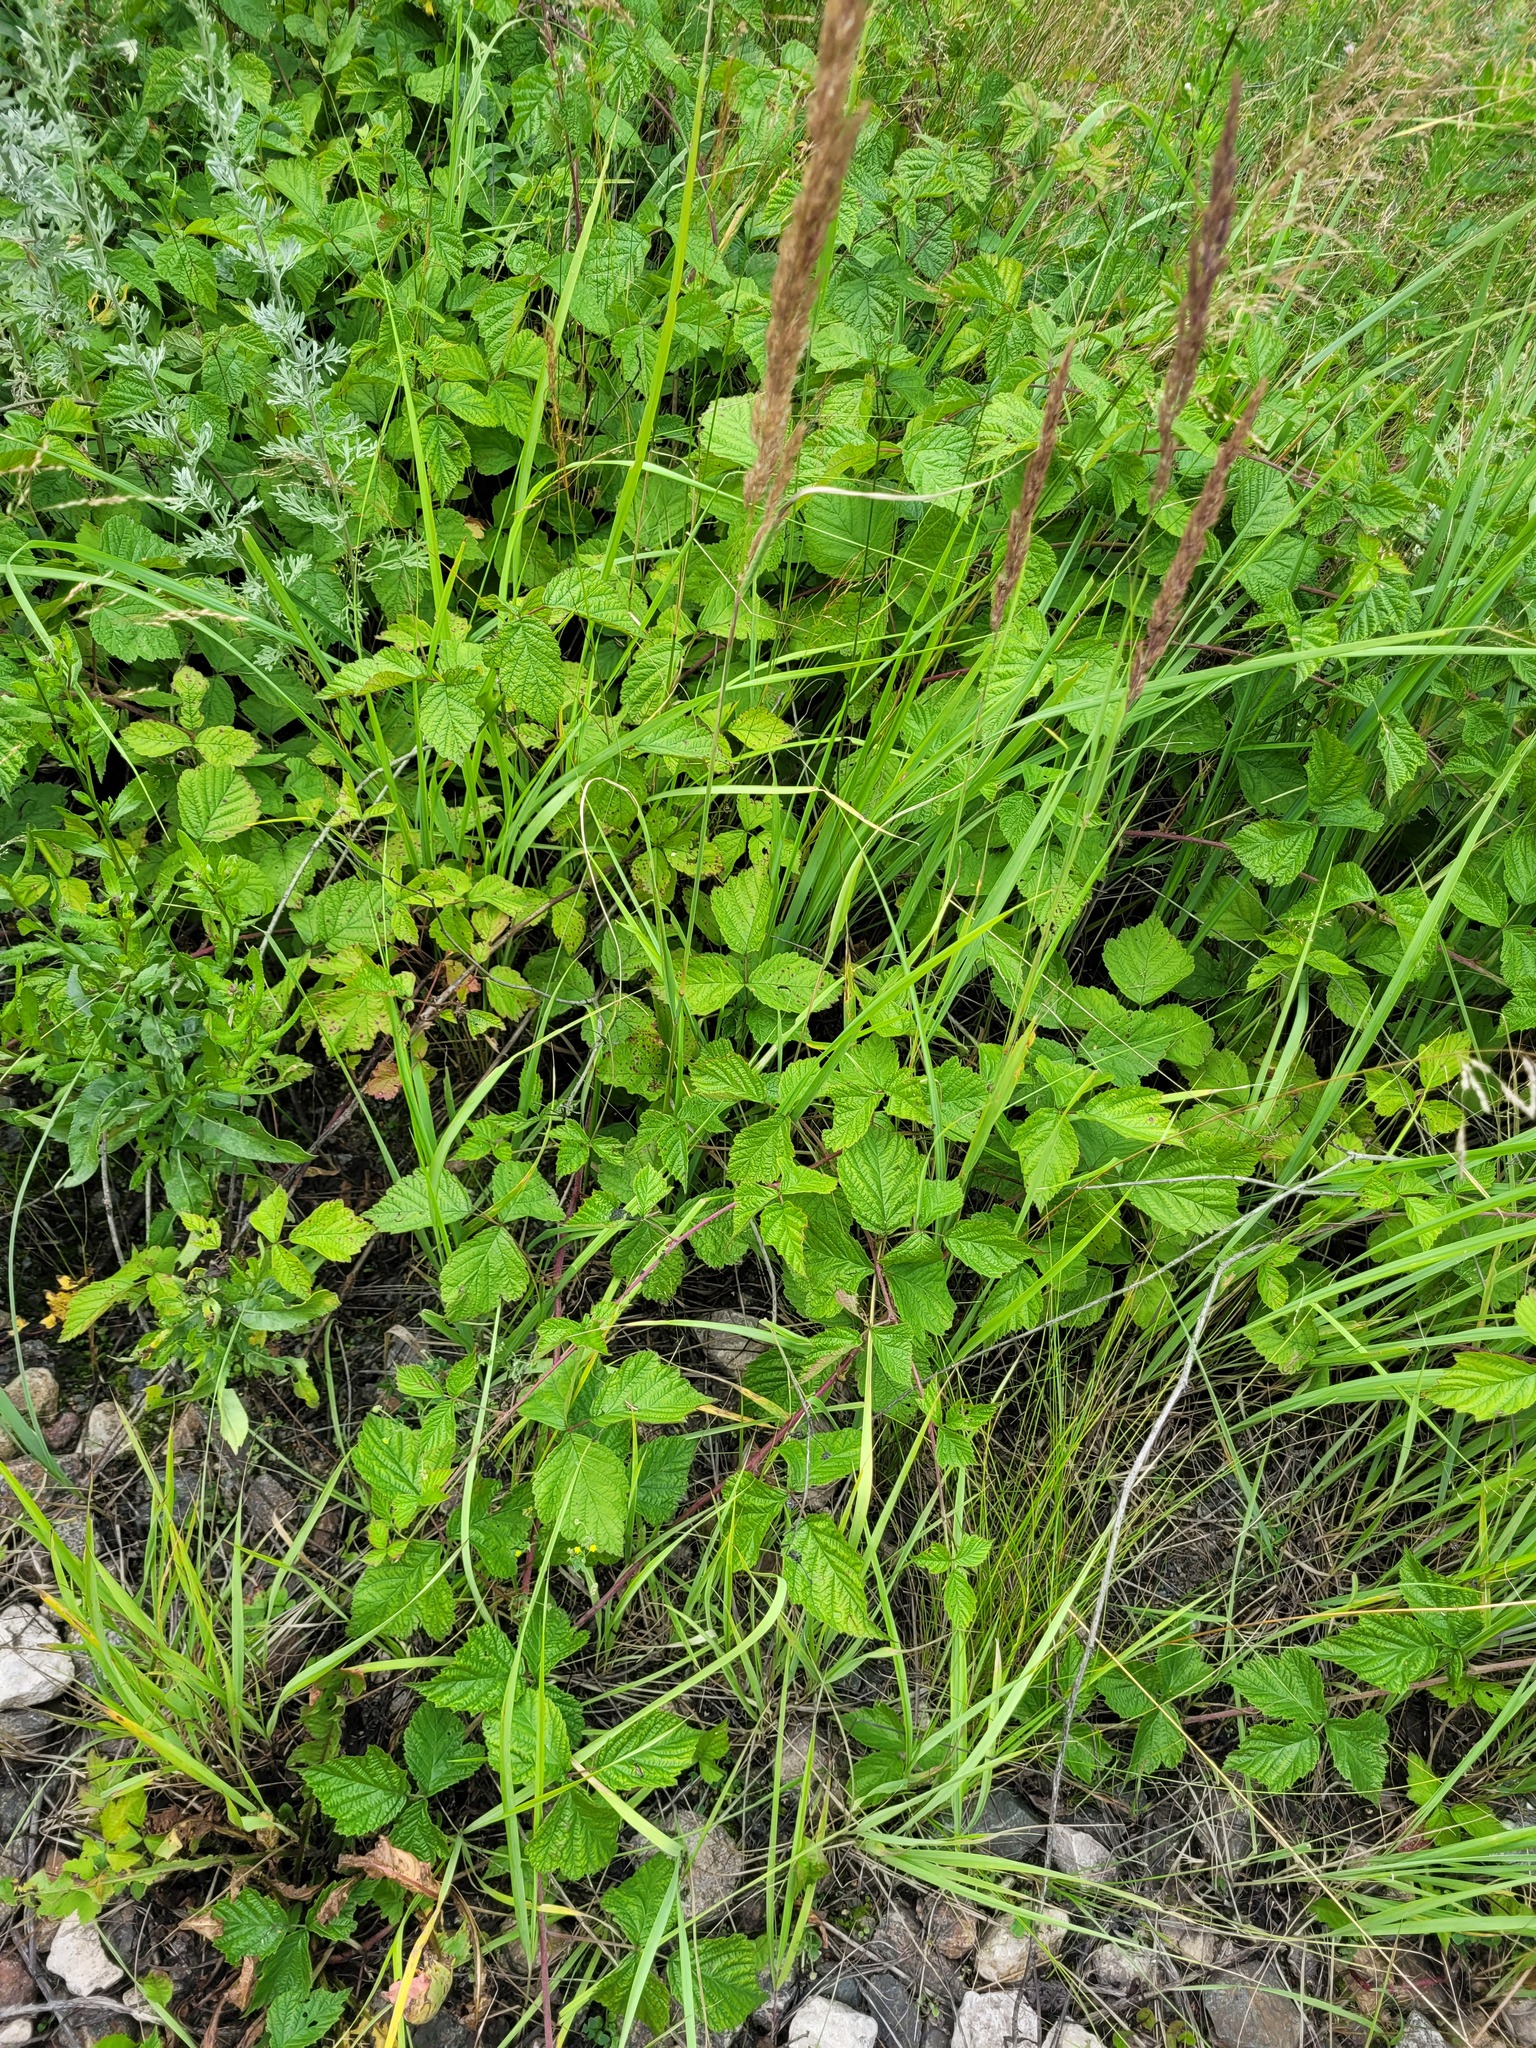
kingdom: Plantae
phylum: Tracheophyta
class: Magnoliopsida
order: Rosales
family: Rosaceae
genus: Rubus
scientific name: Rubus caesius
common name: Dewberry
